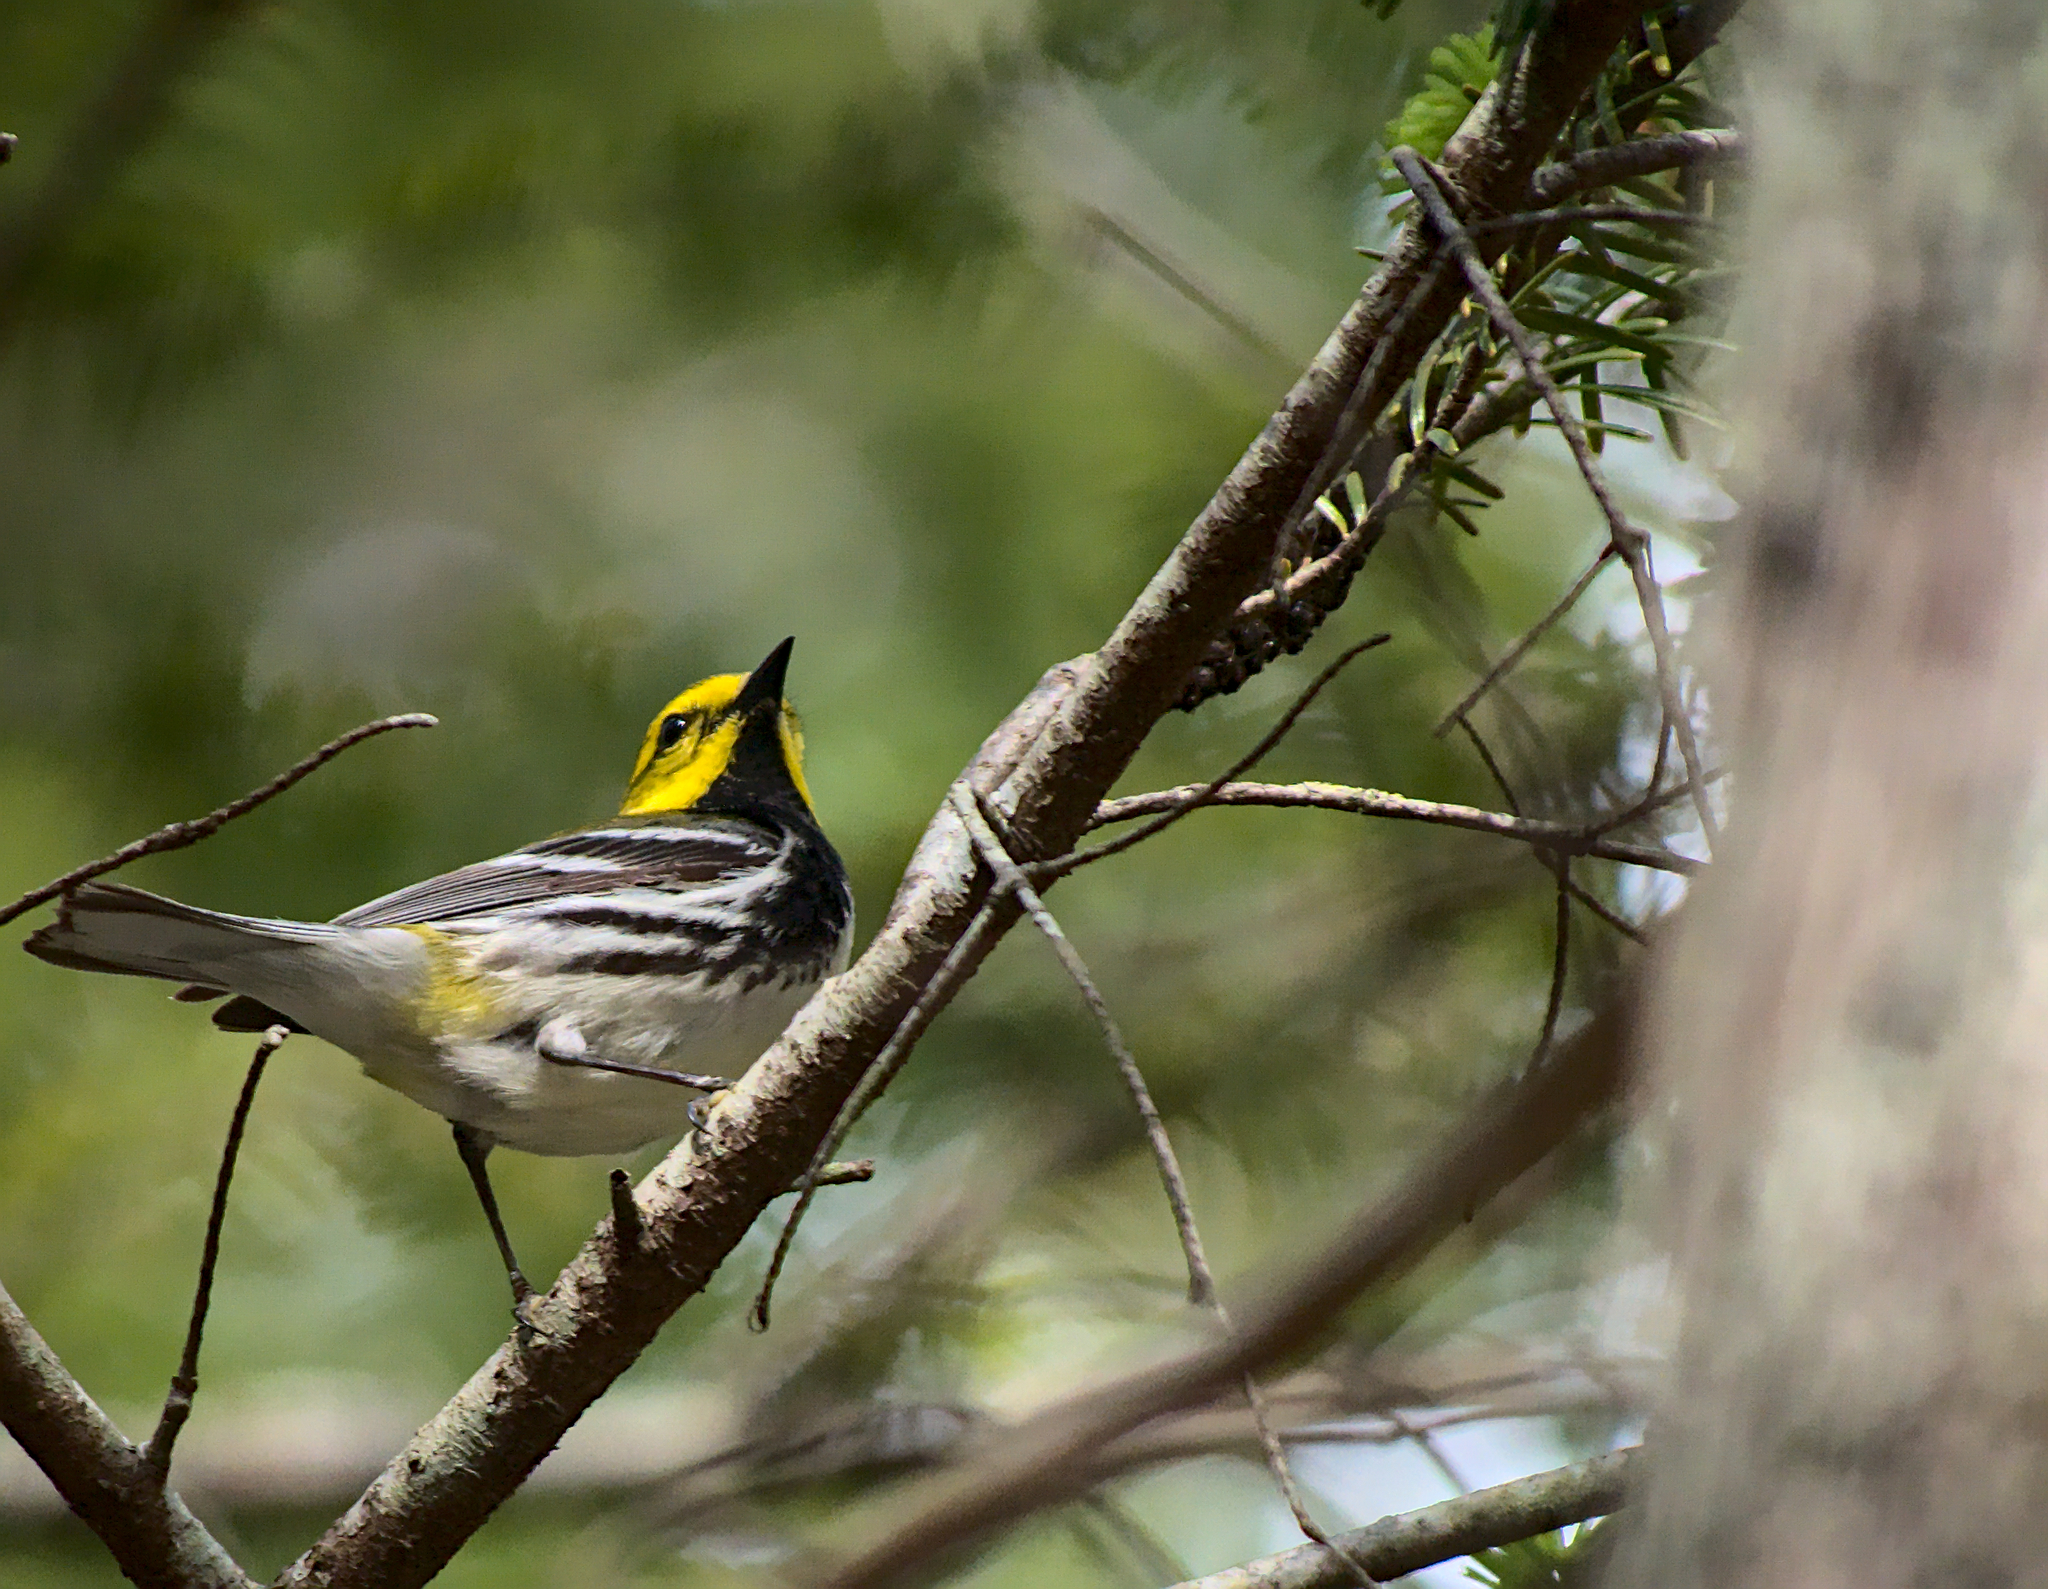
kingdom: Animalia
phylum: Chordata
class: Aves
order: Passeriformes
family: Parulidae
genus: Setophaga
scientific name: Setophaga virens
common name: Black-throated green warbler
